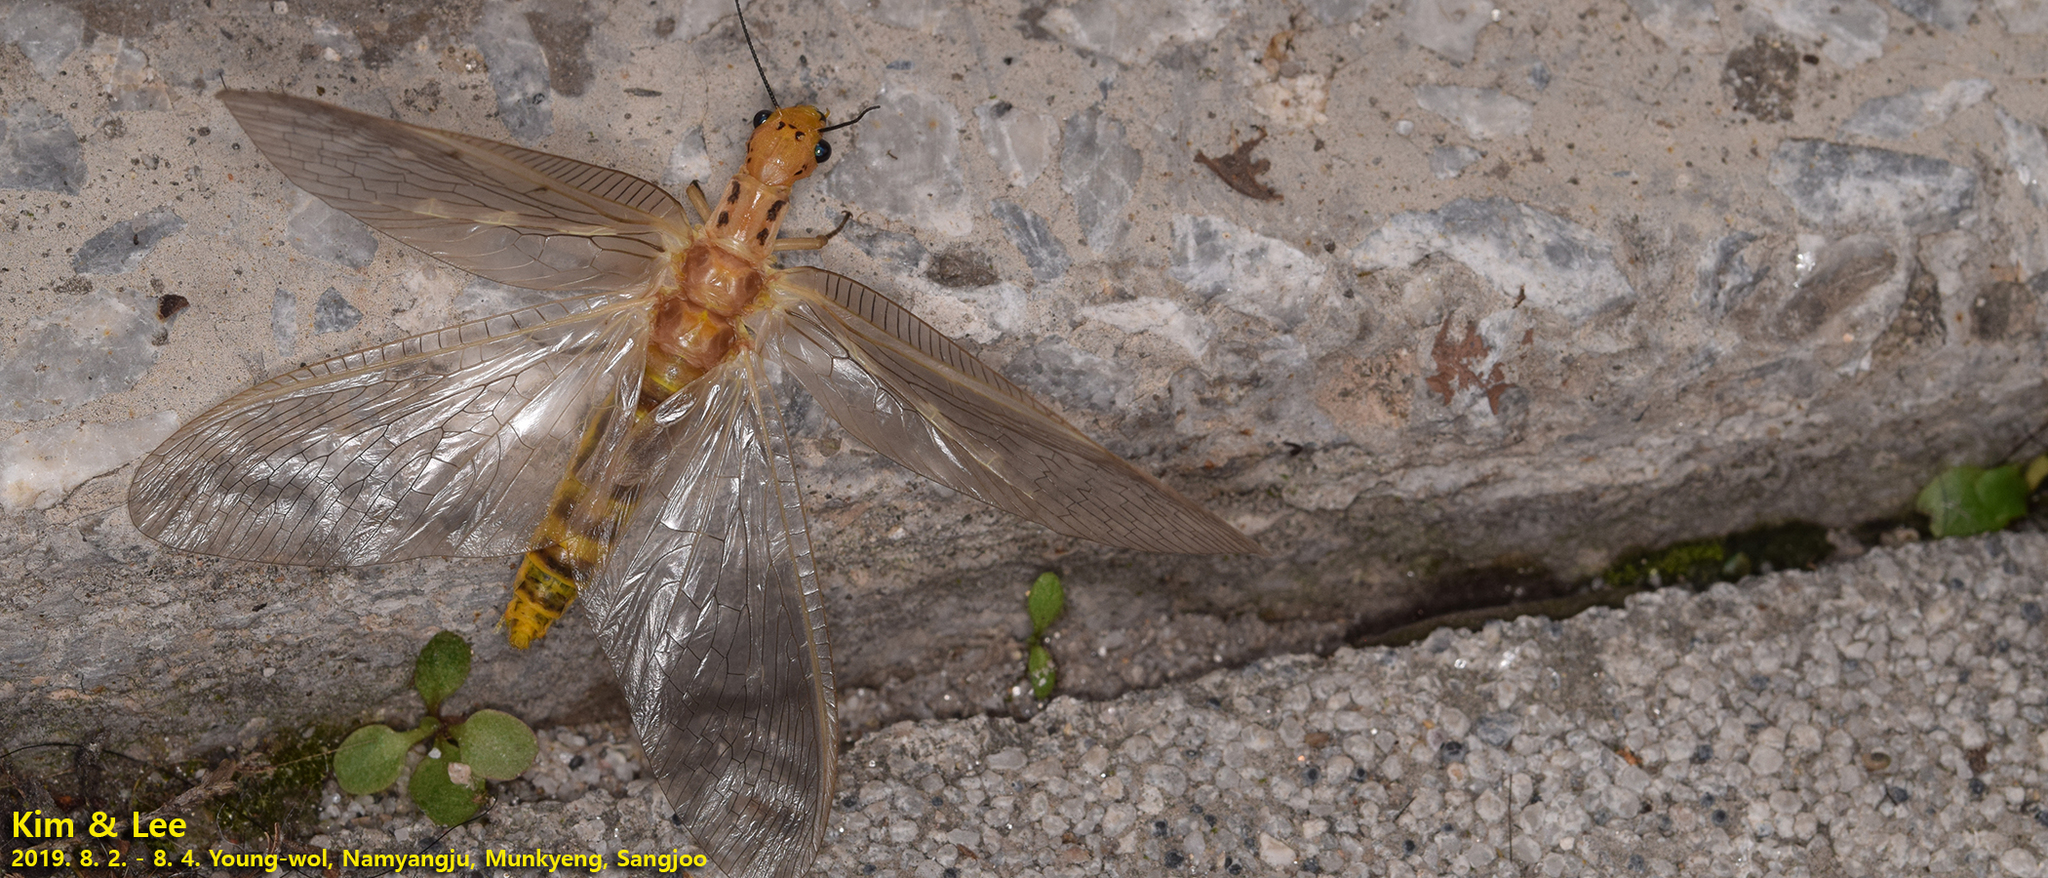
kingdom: Animalia
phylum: Arthropoda
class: Insecta
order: Megaloptera
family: Corydalidae
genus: Protohermes
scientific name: Protohermes xanthodes
